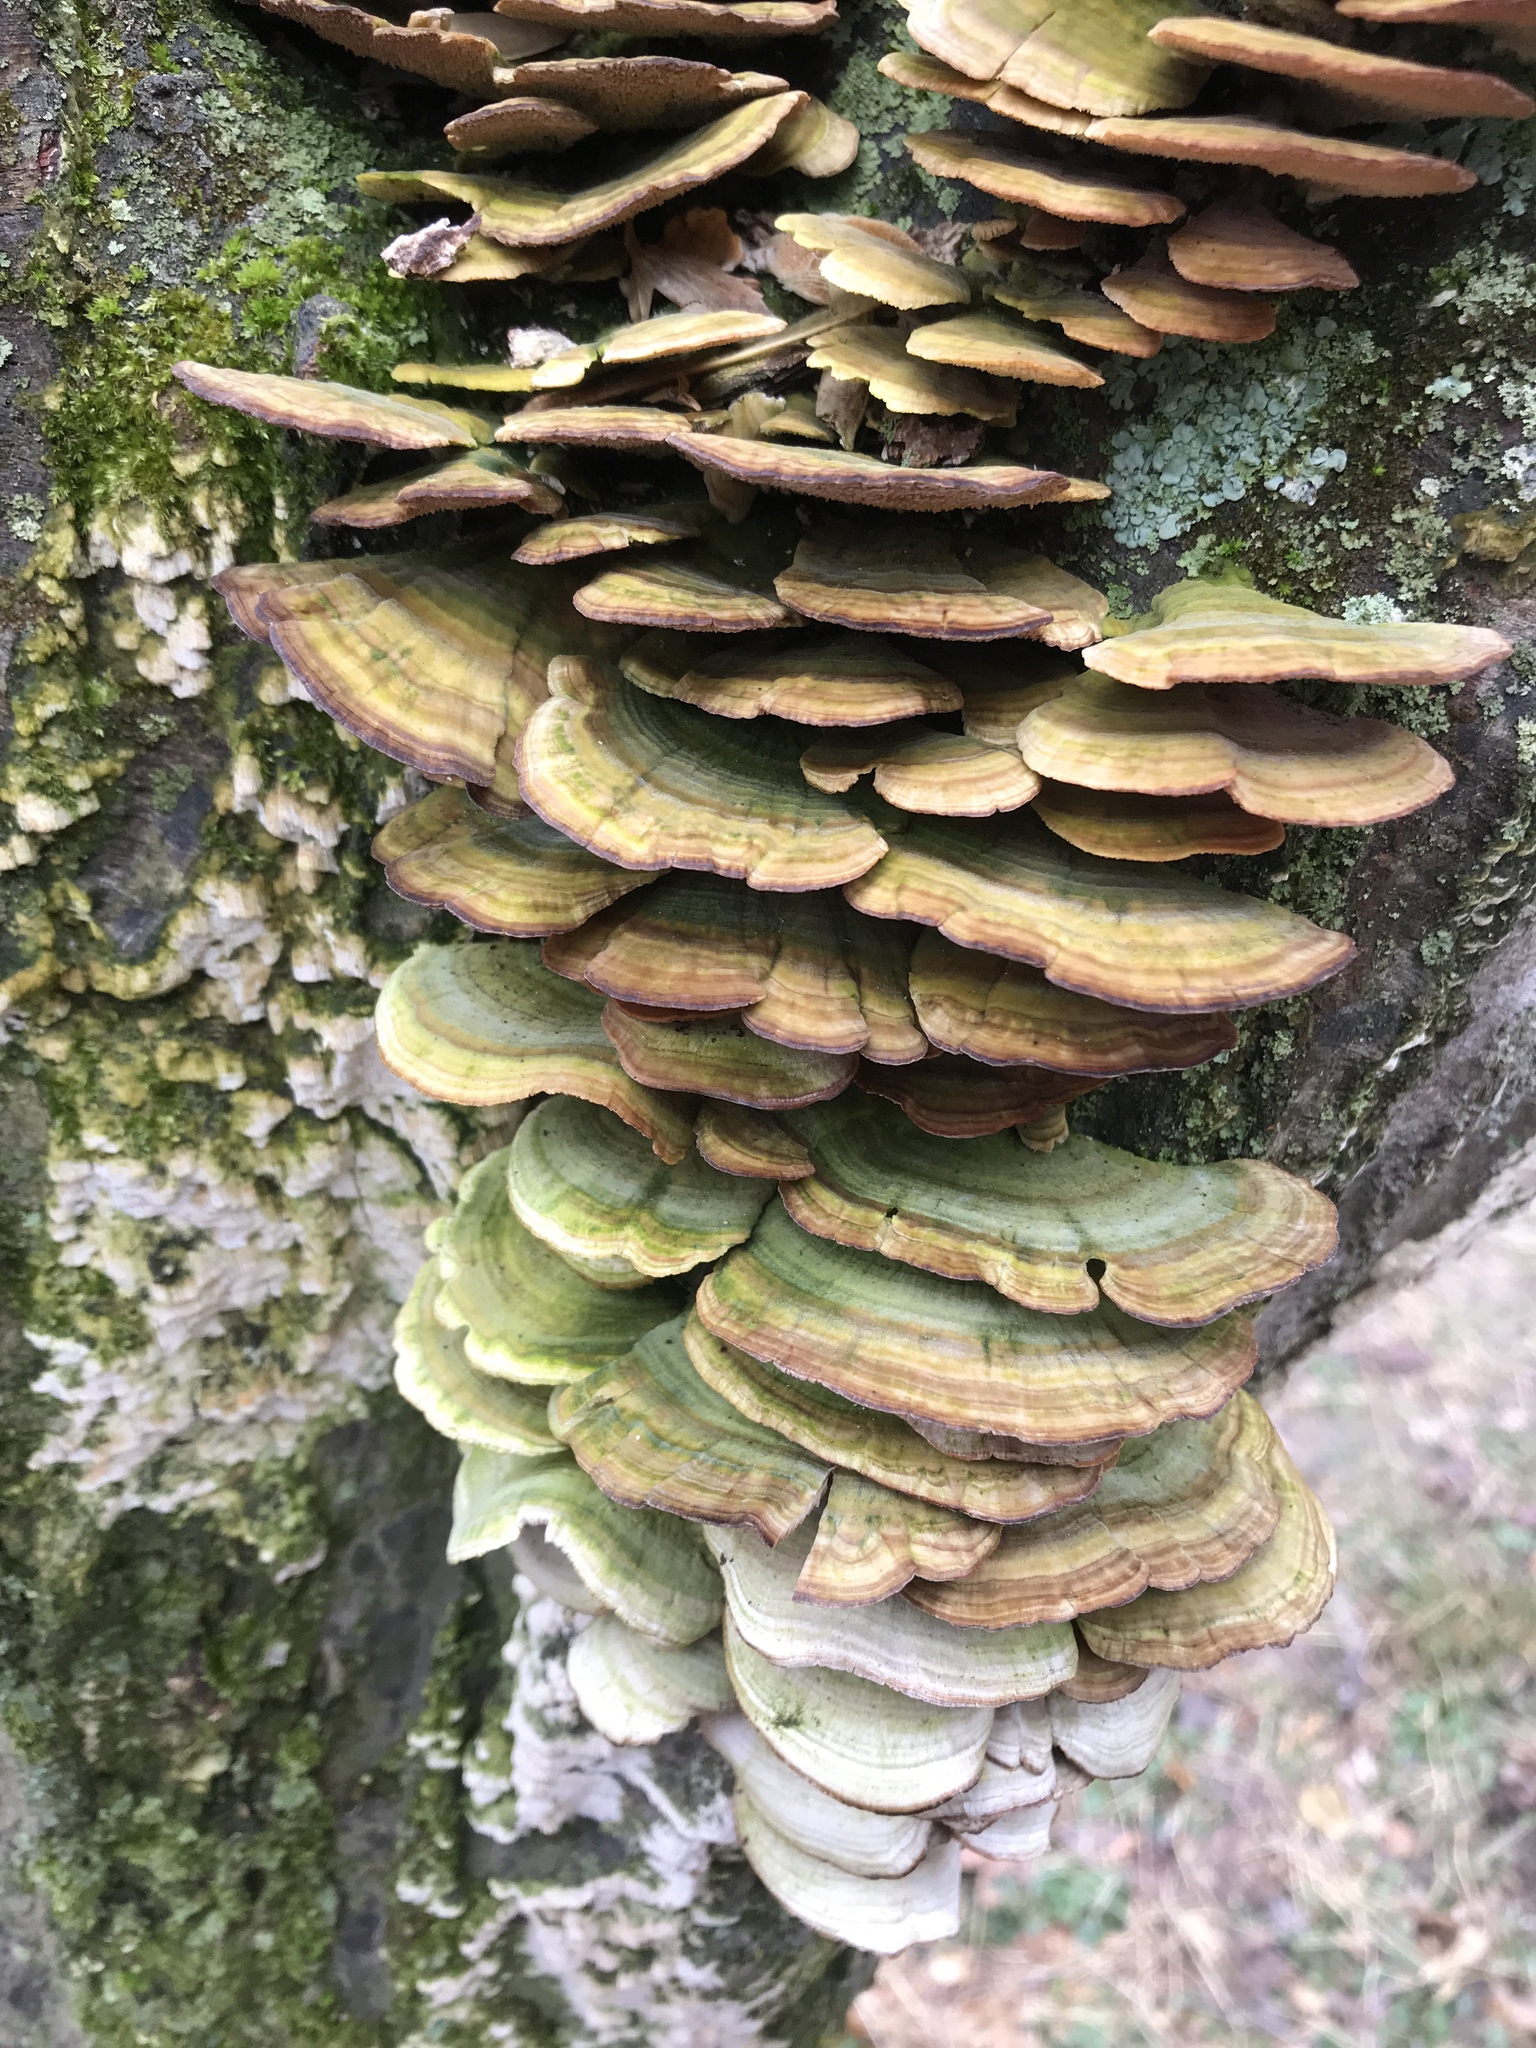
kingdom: Fungi
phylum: Basidiomycota
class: Agaricomycetes
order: Hymenochaetales
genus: Trichaptum
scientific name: Trichaptum biforme
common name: Violet-toothed polypore
